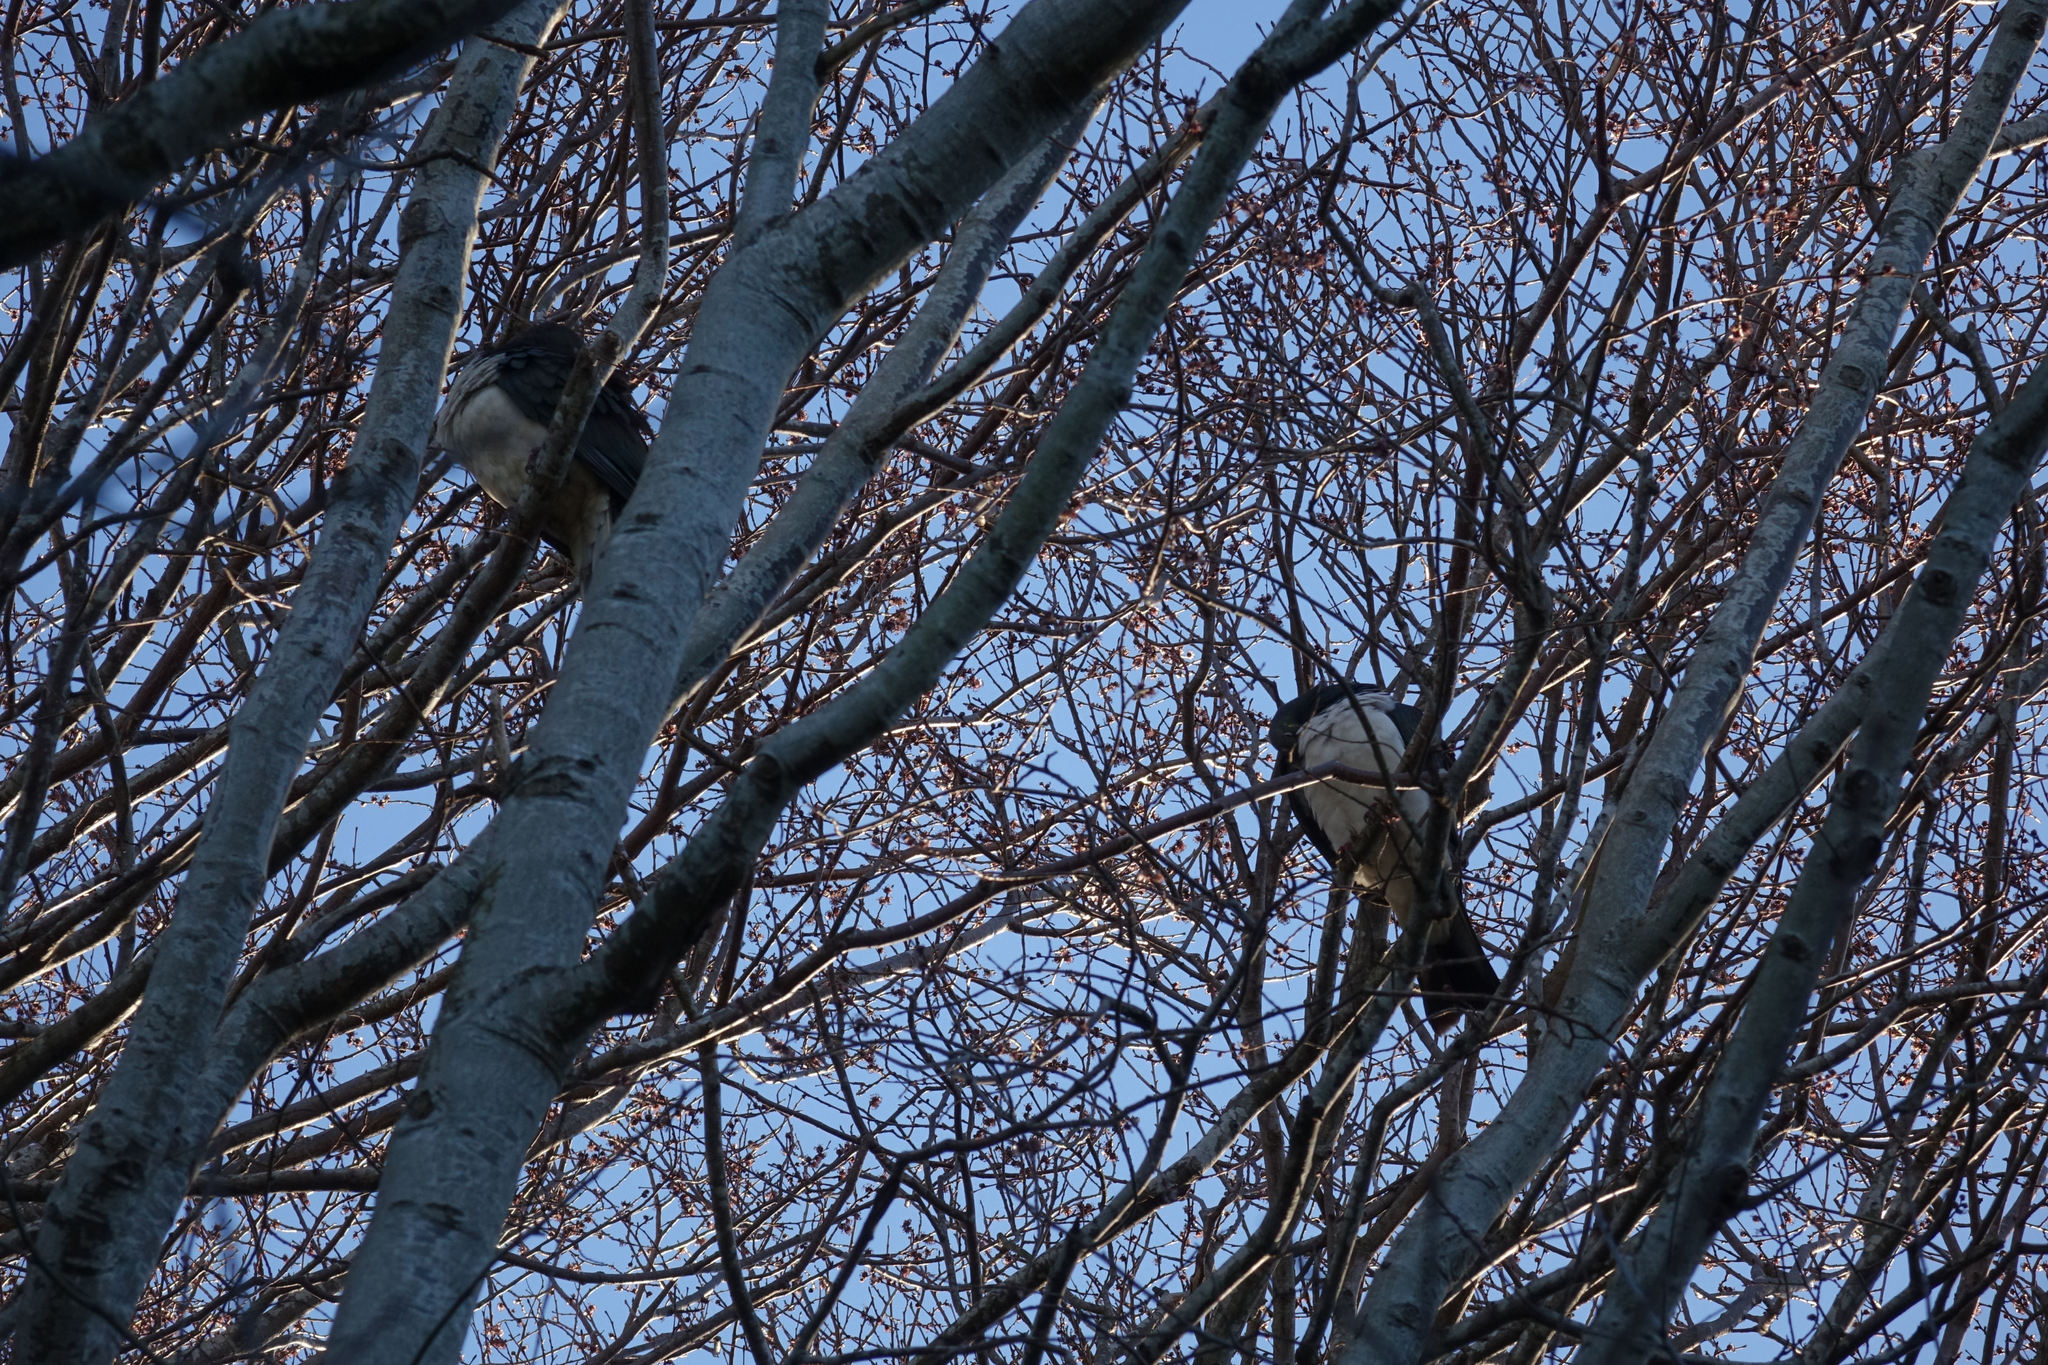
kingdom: Animalia
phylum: Chordata
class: Aves
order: Columbiformes
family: Columbidae
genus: Hemiphaga
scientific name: Hemiphaga novaeseelandiae
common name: New zealand pigeon
